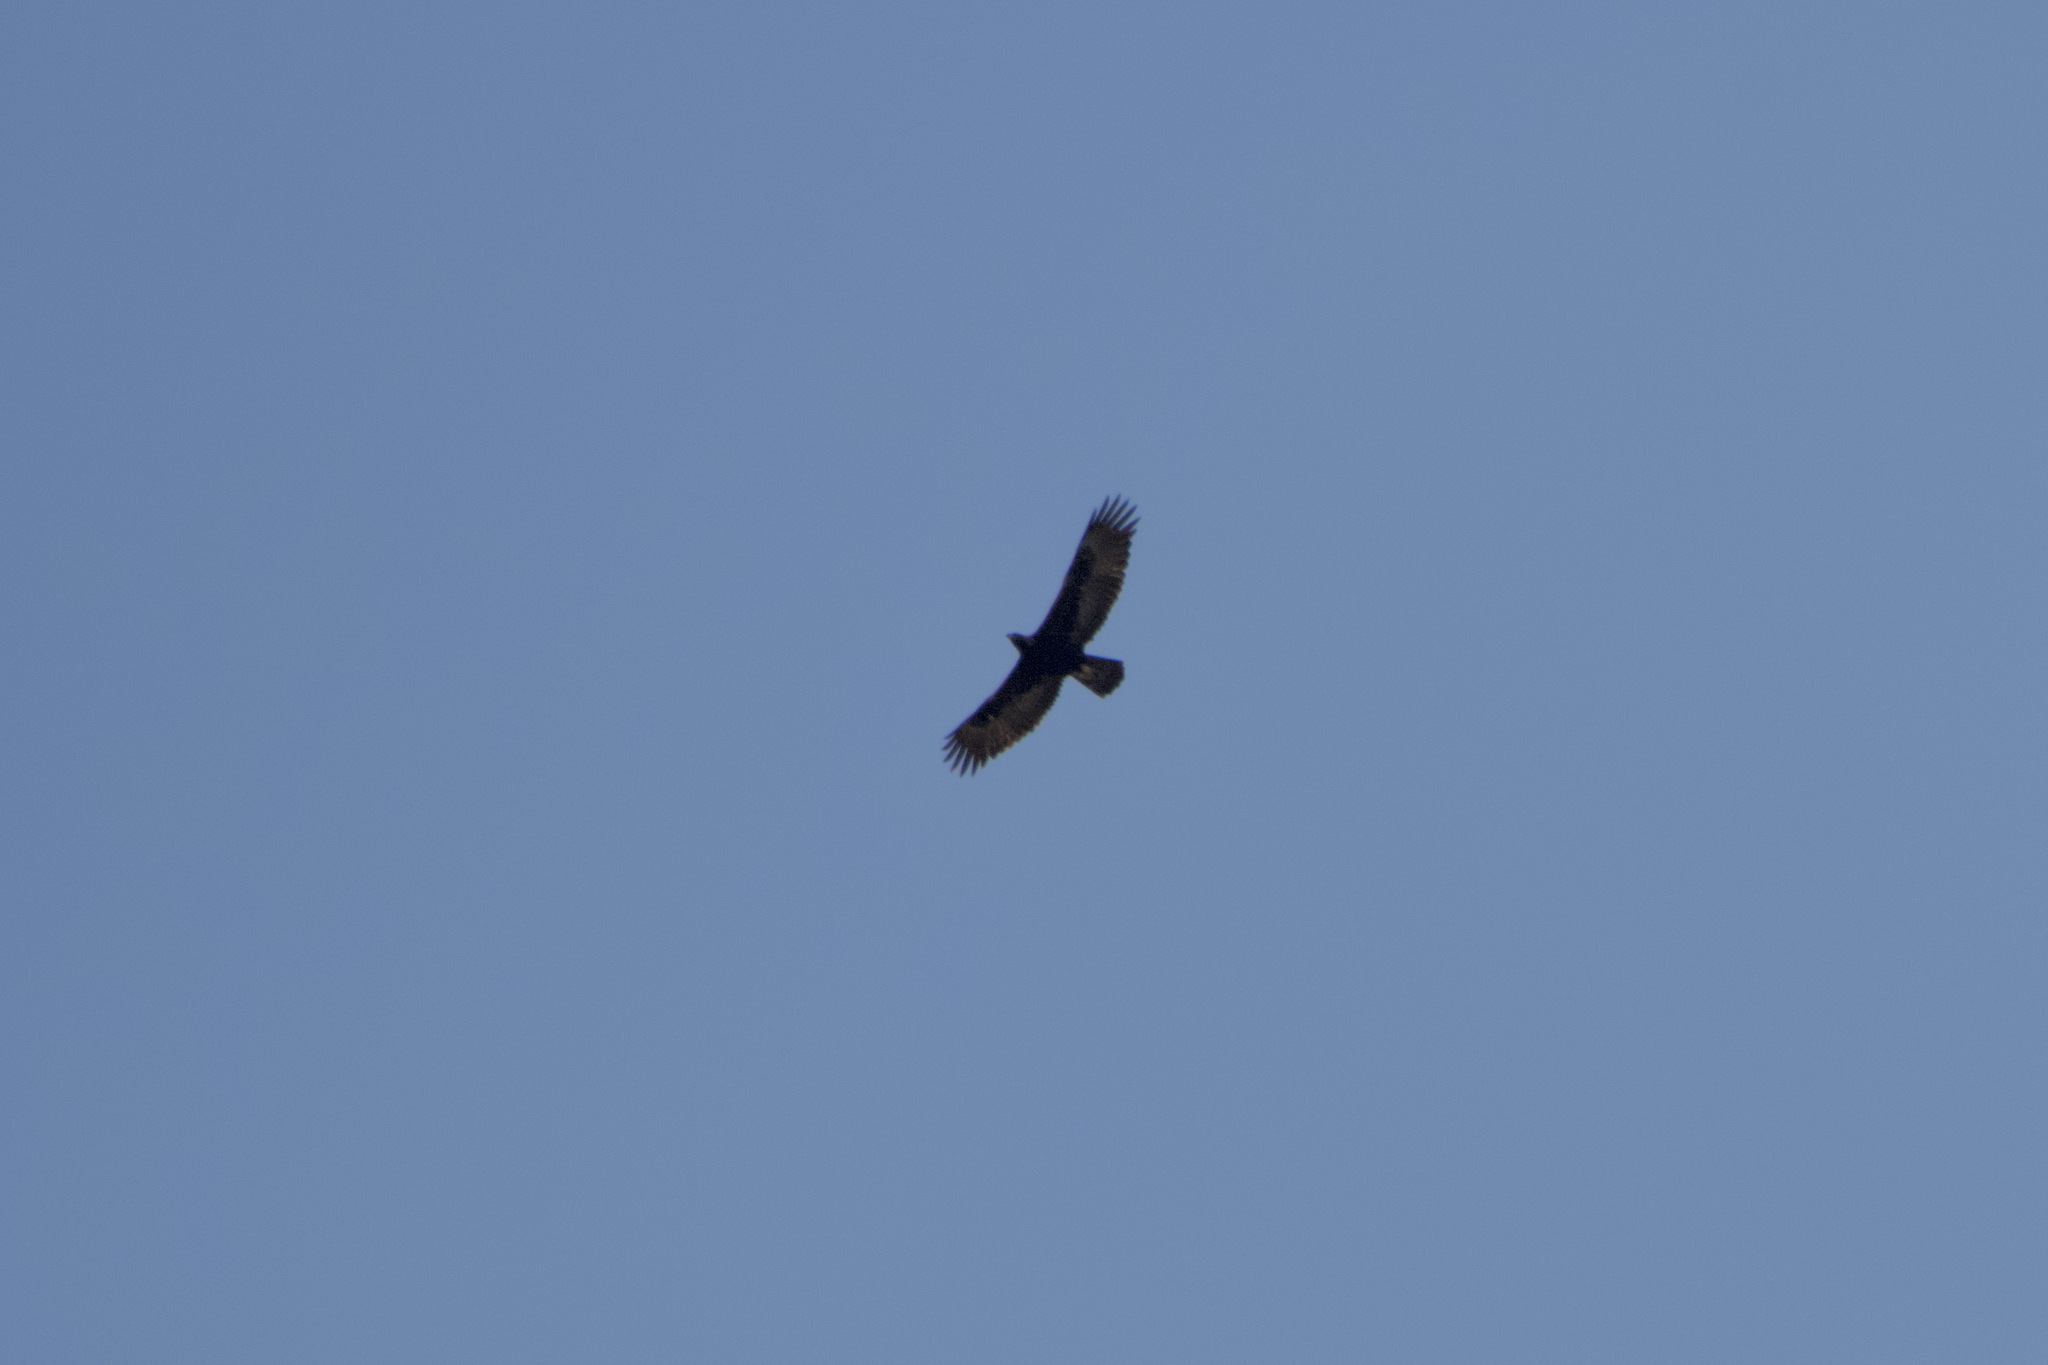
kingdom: Animalia
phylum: Chordata
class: Aves
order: Accipitriformes
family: Accipitridae
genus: Aquila
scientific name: Aquila chrysaetos
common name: Golden eagle
